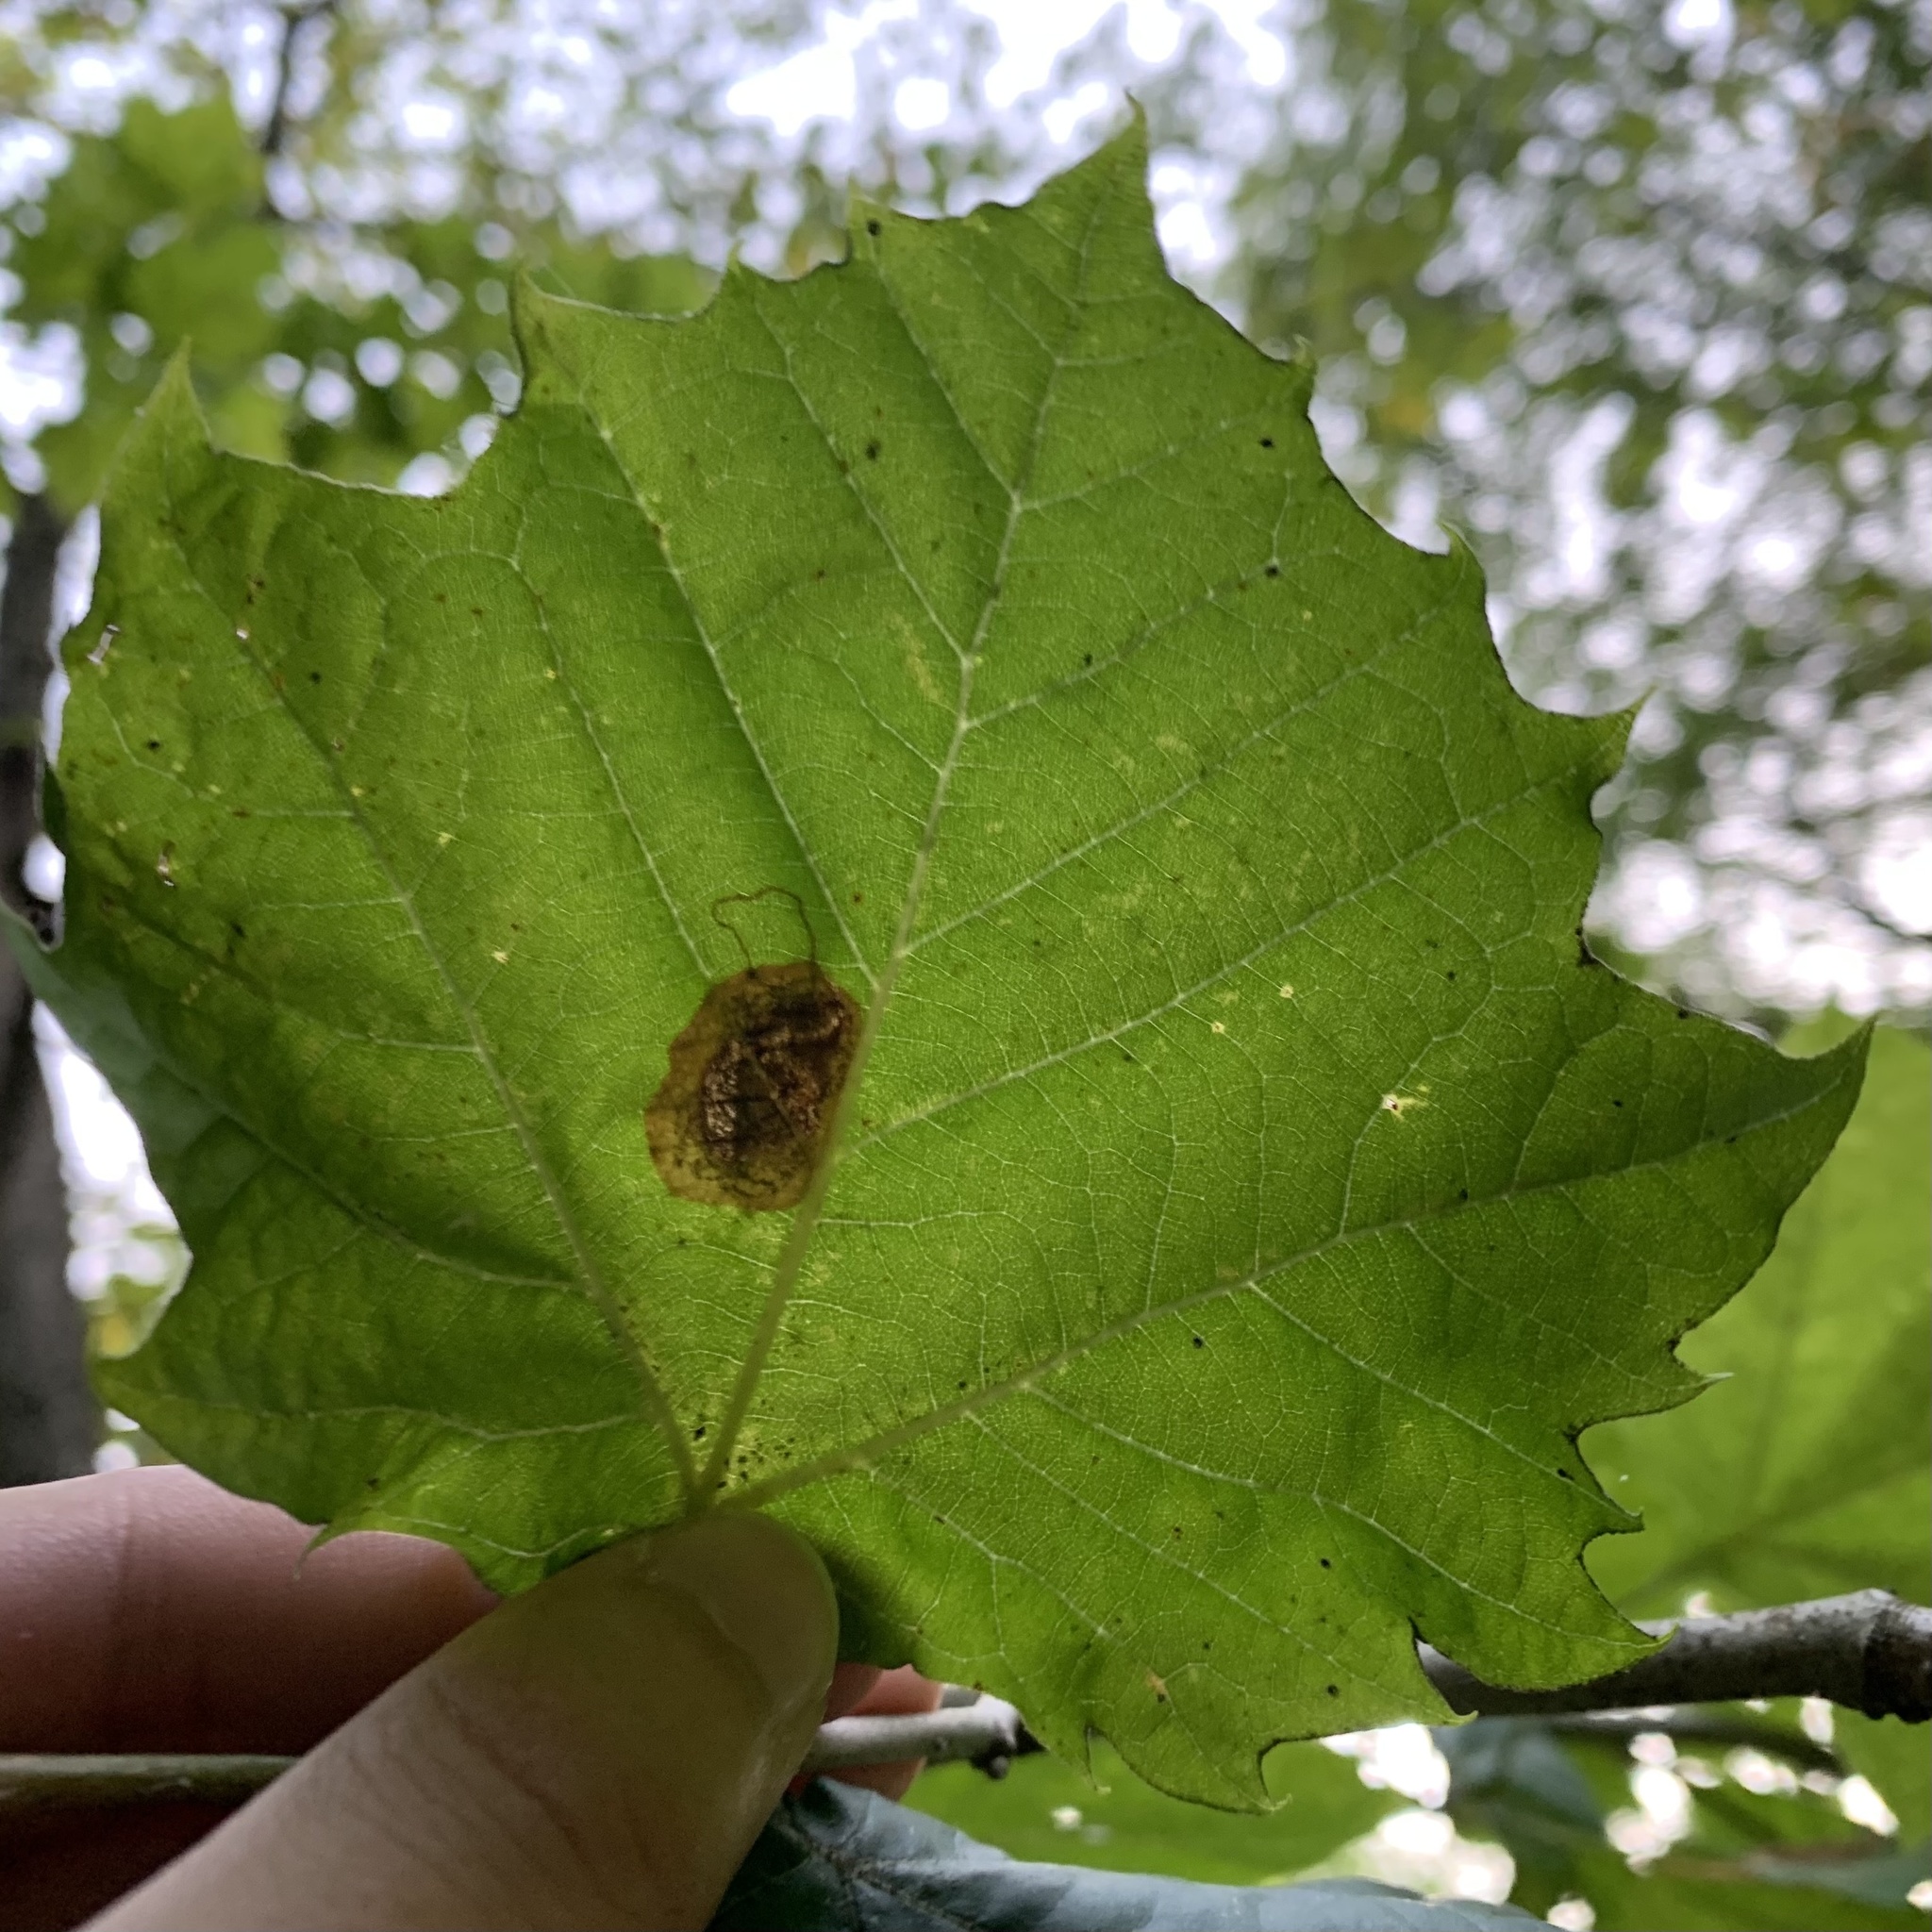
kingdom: Animalia
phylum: Arthropoda
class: Insecta
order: Lepidoptera
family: Nepticulidae
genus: Ectoedemia
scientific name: Ectoedemia platanella
